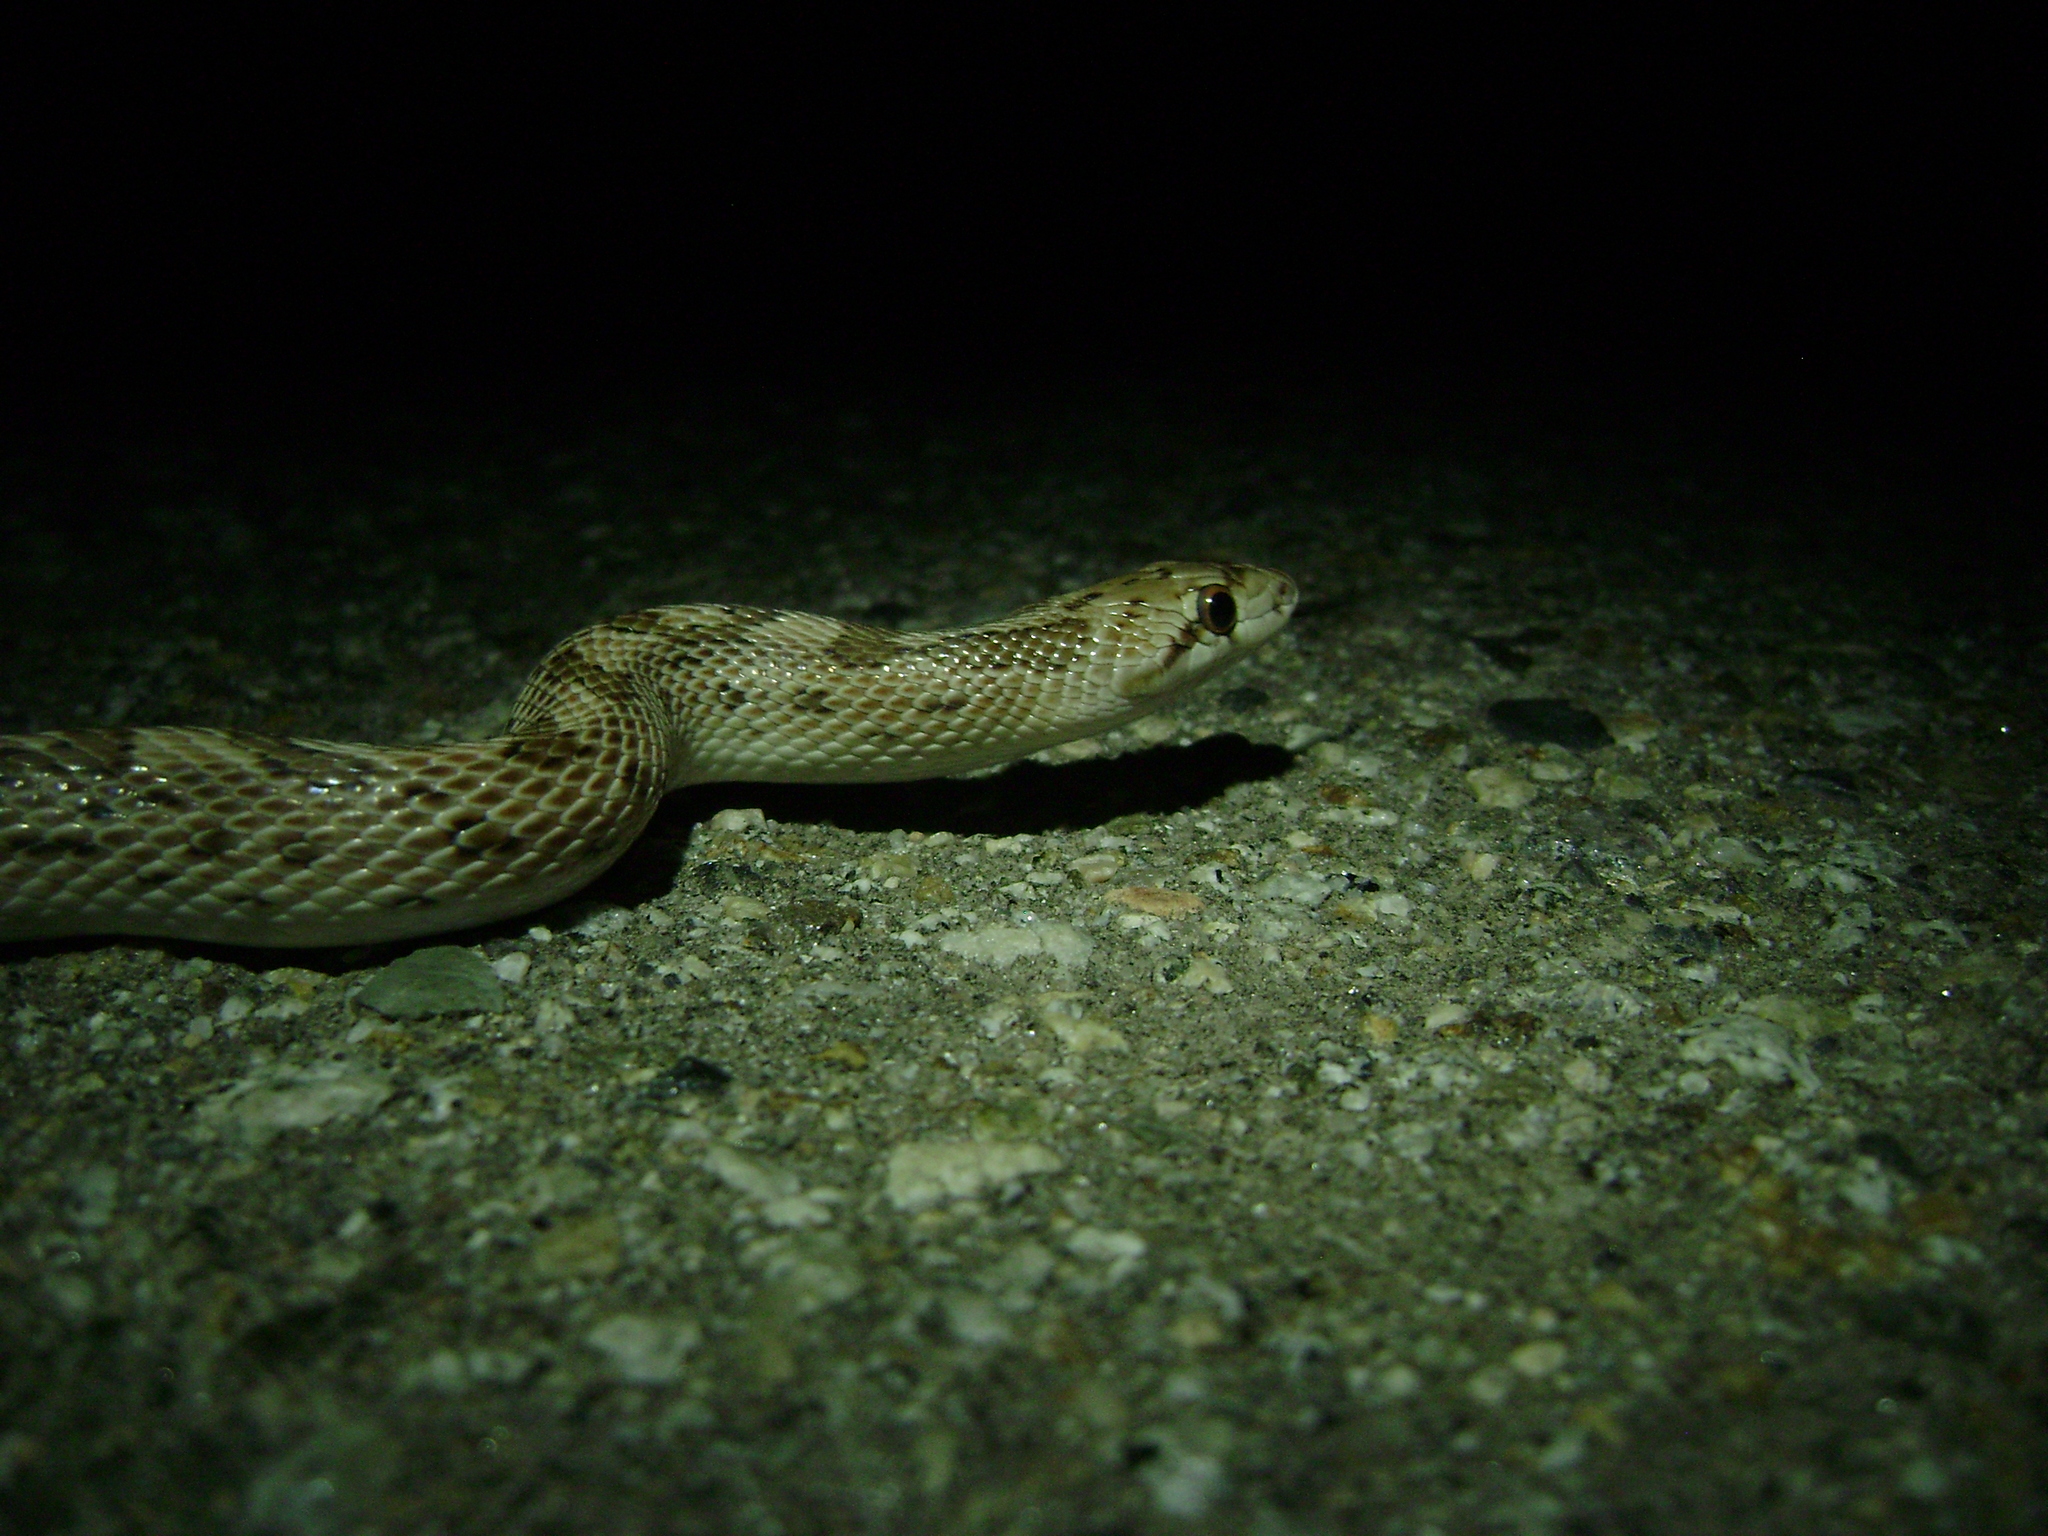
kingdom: Animalia
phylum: Chordata
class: Squamata
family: Colubridae
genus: Arizona
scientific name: Arizona elegans
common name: Glossy snake
